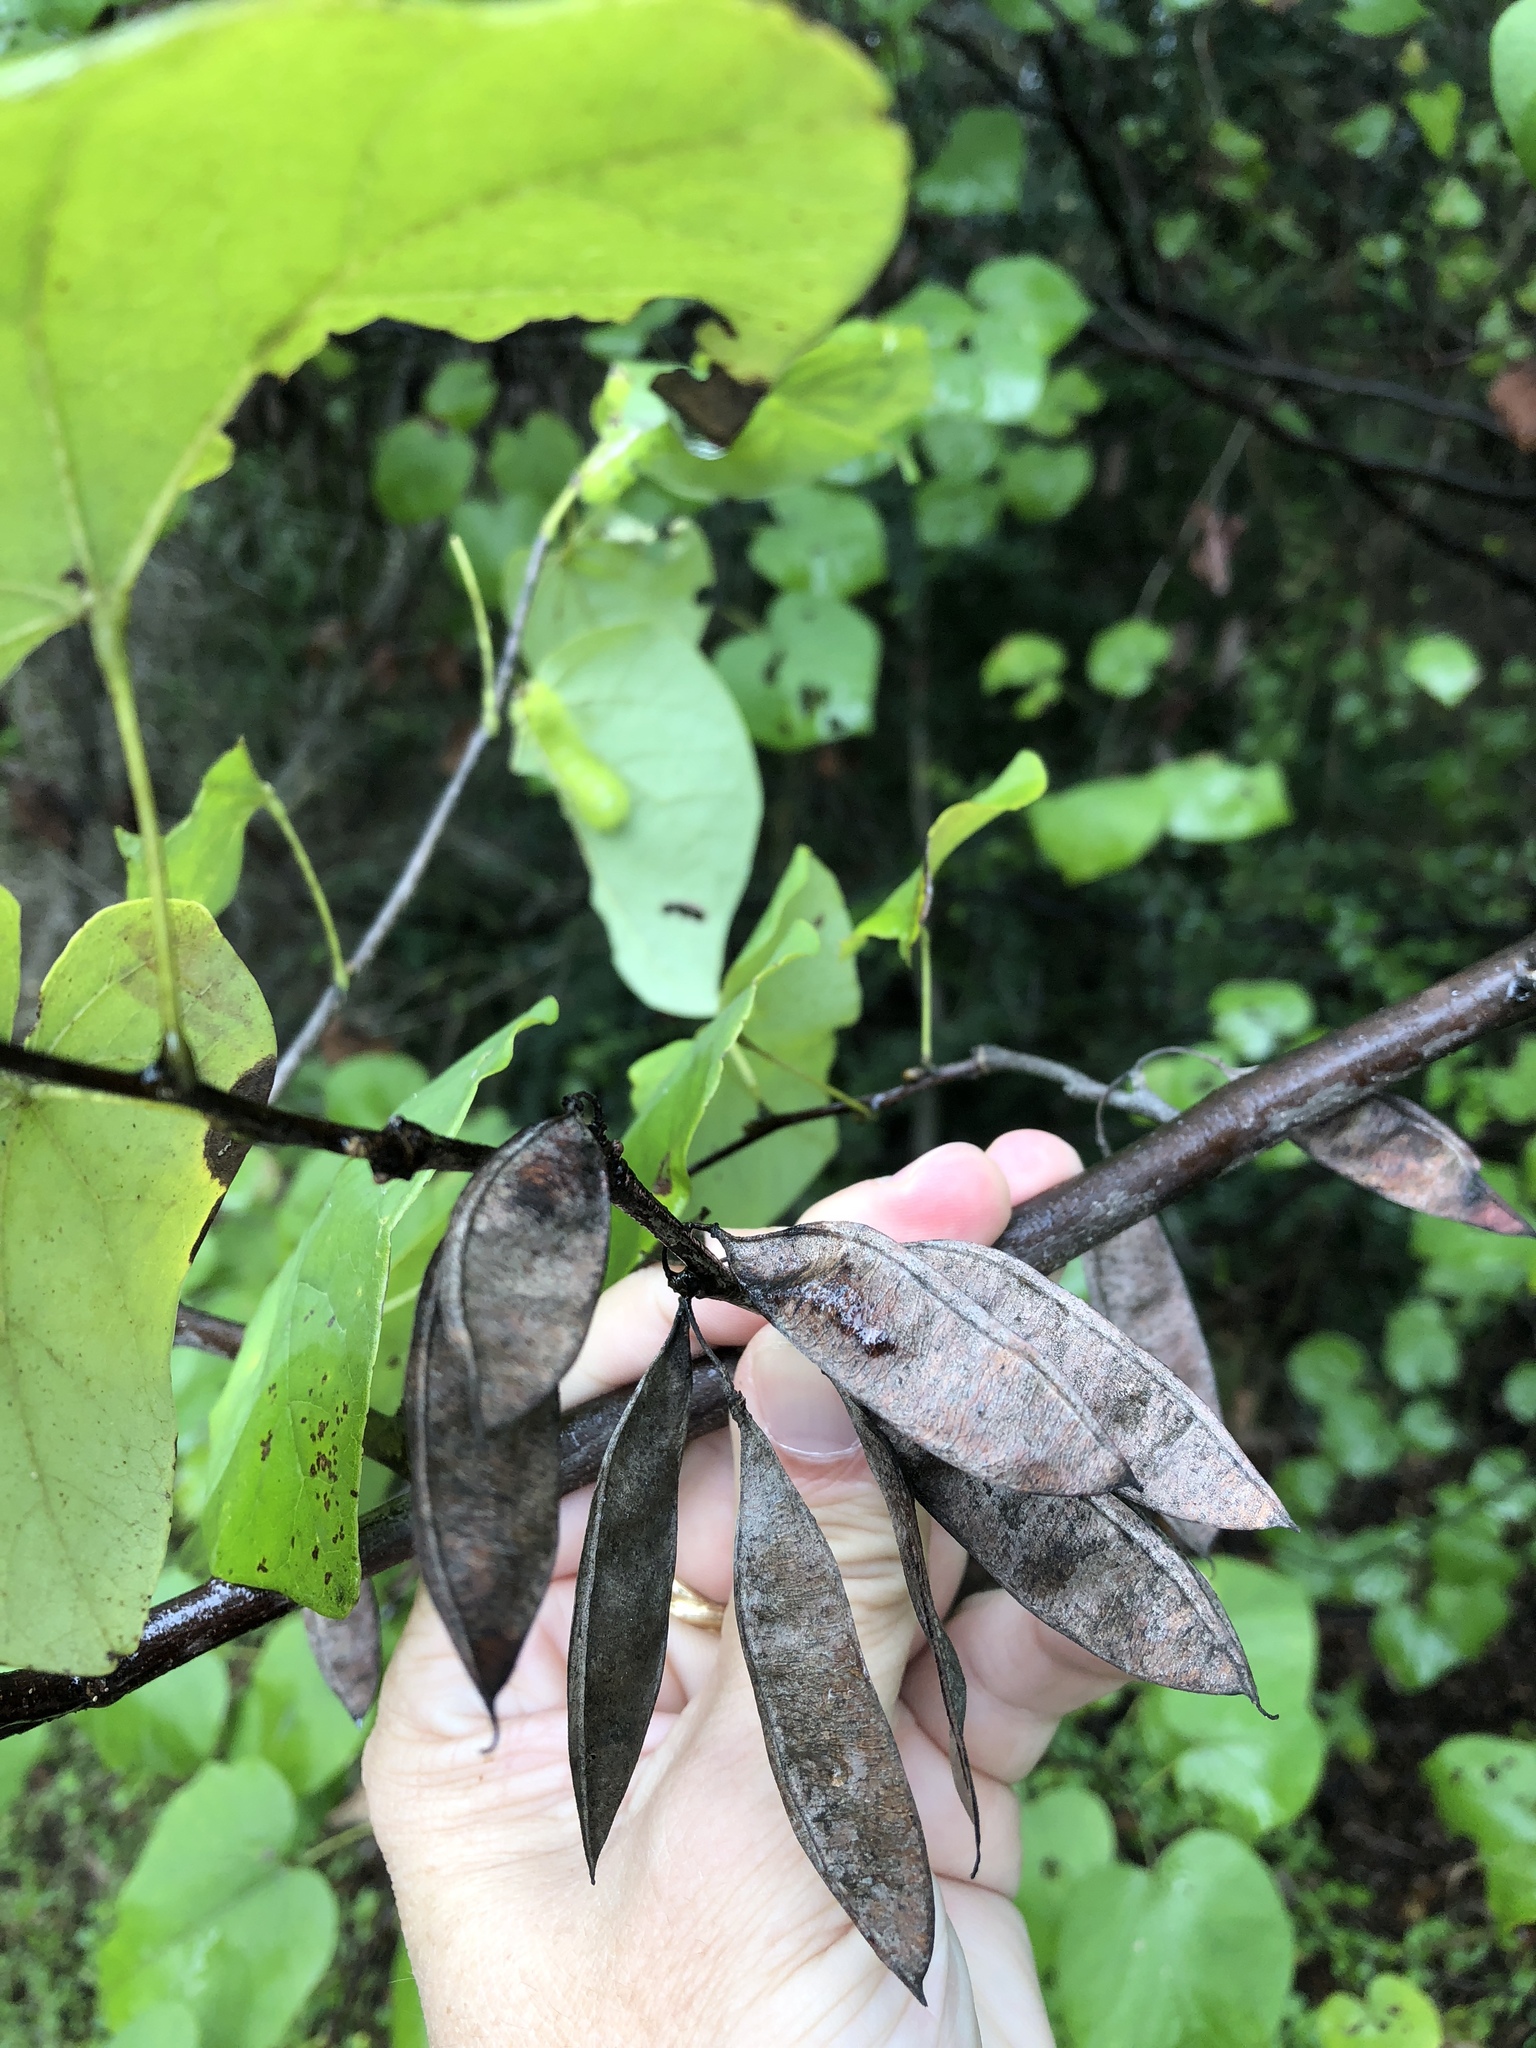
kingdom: Plantae
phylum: Tracheophyta
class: Magnoliopsida
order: Fabales
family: Fabaceae
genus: Cercis
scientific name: Cercis canadensis
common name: Eastern redbud
